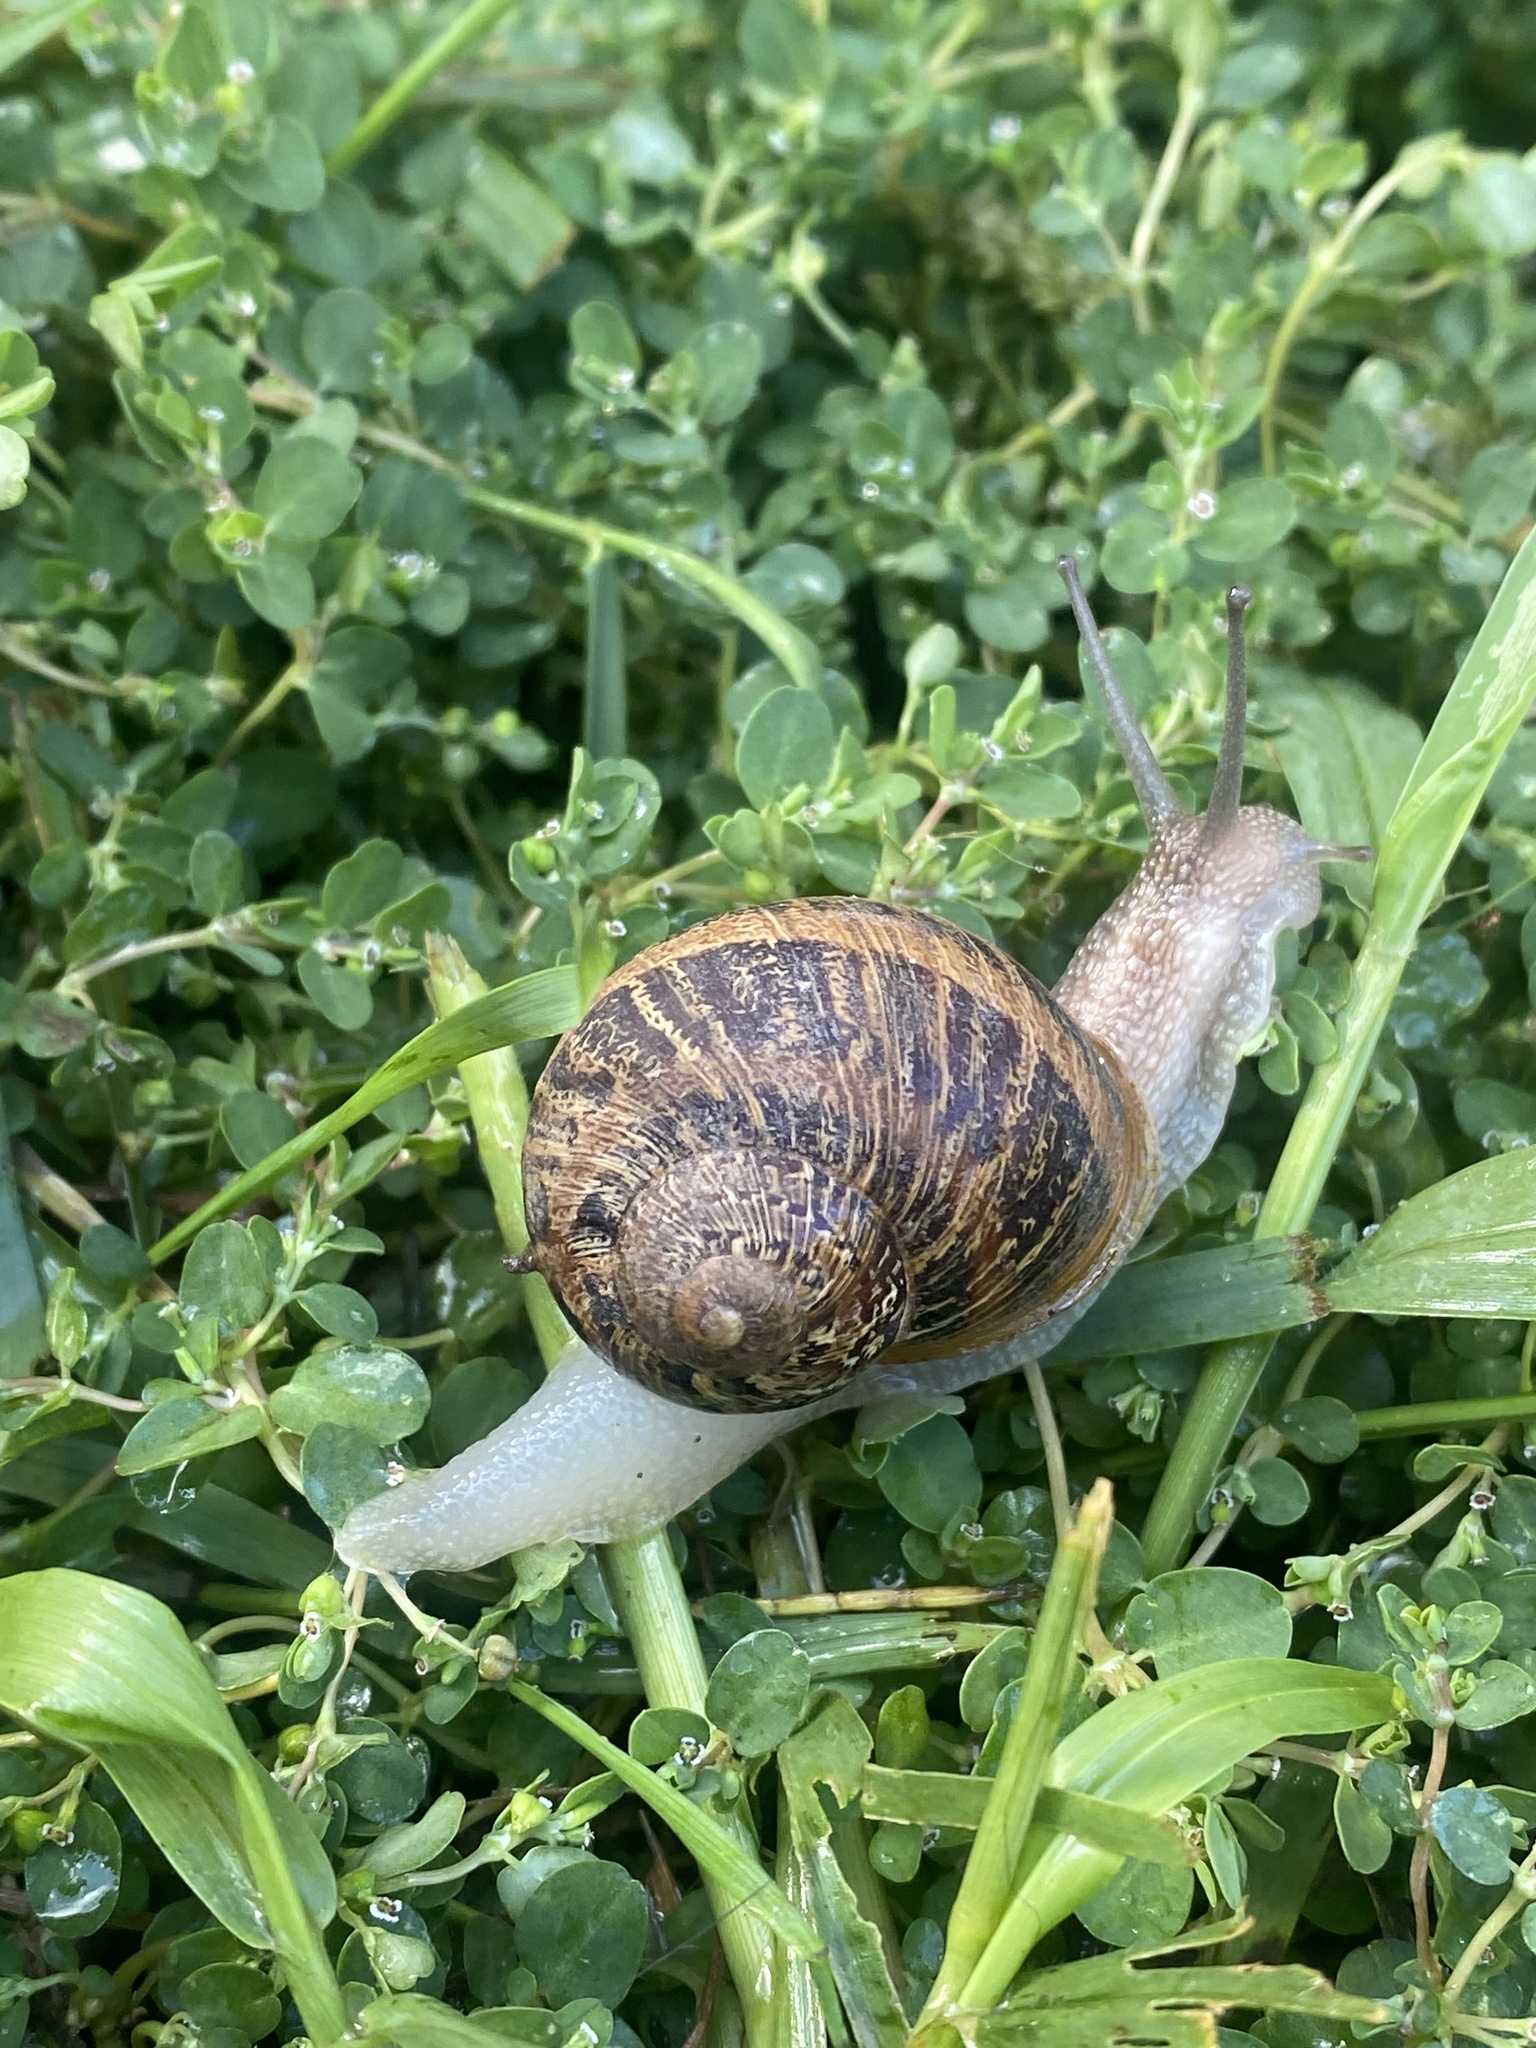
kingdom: Animalia
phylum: Mollusca
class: Gastropoda
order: Stylommatophora
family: Helicidae
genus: Cornu
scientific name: Cornu aspersum
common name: Brown garden snail
